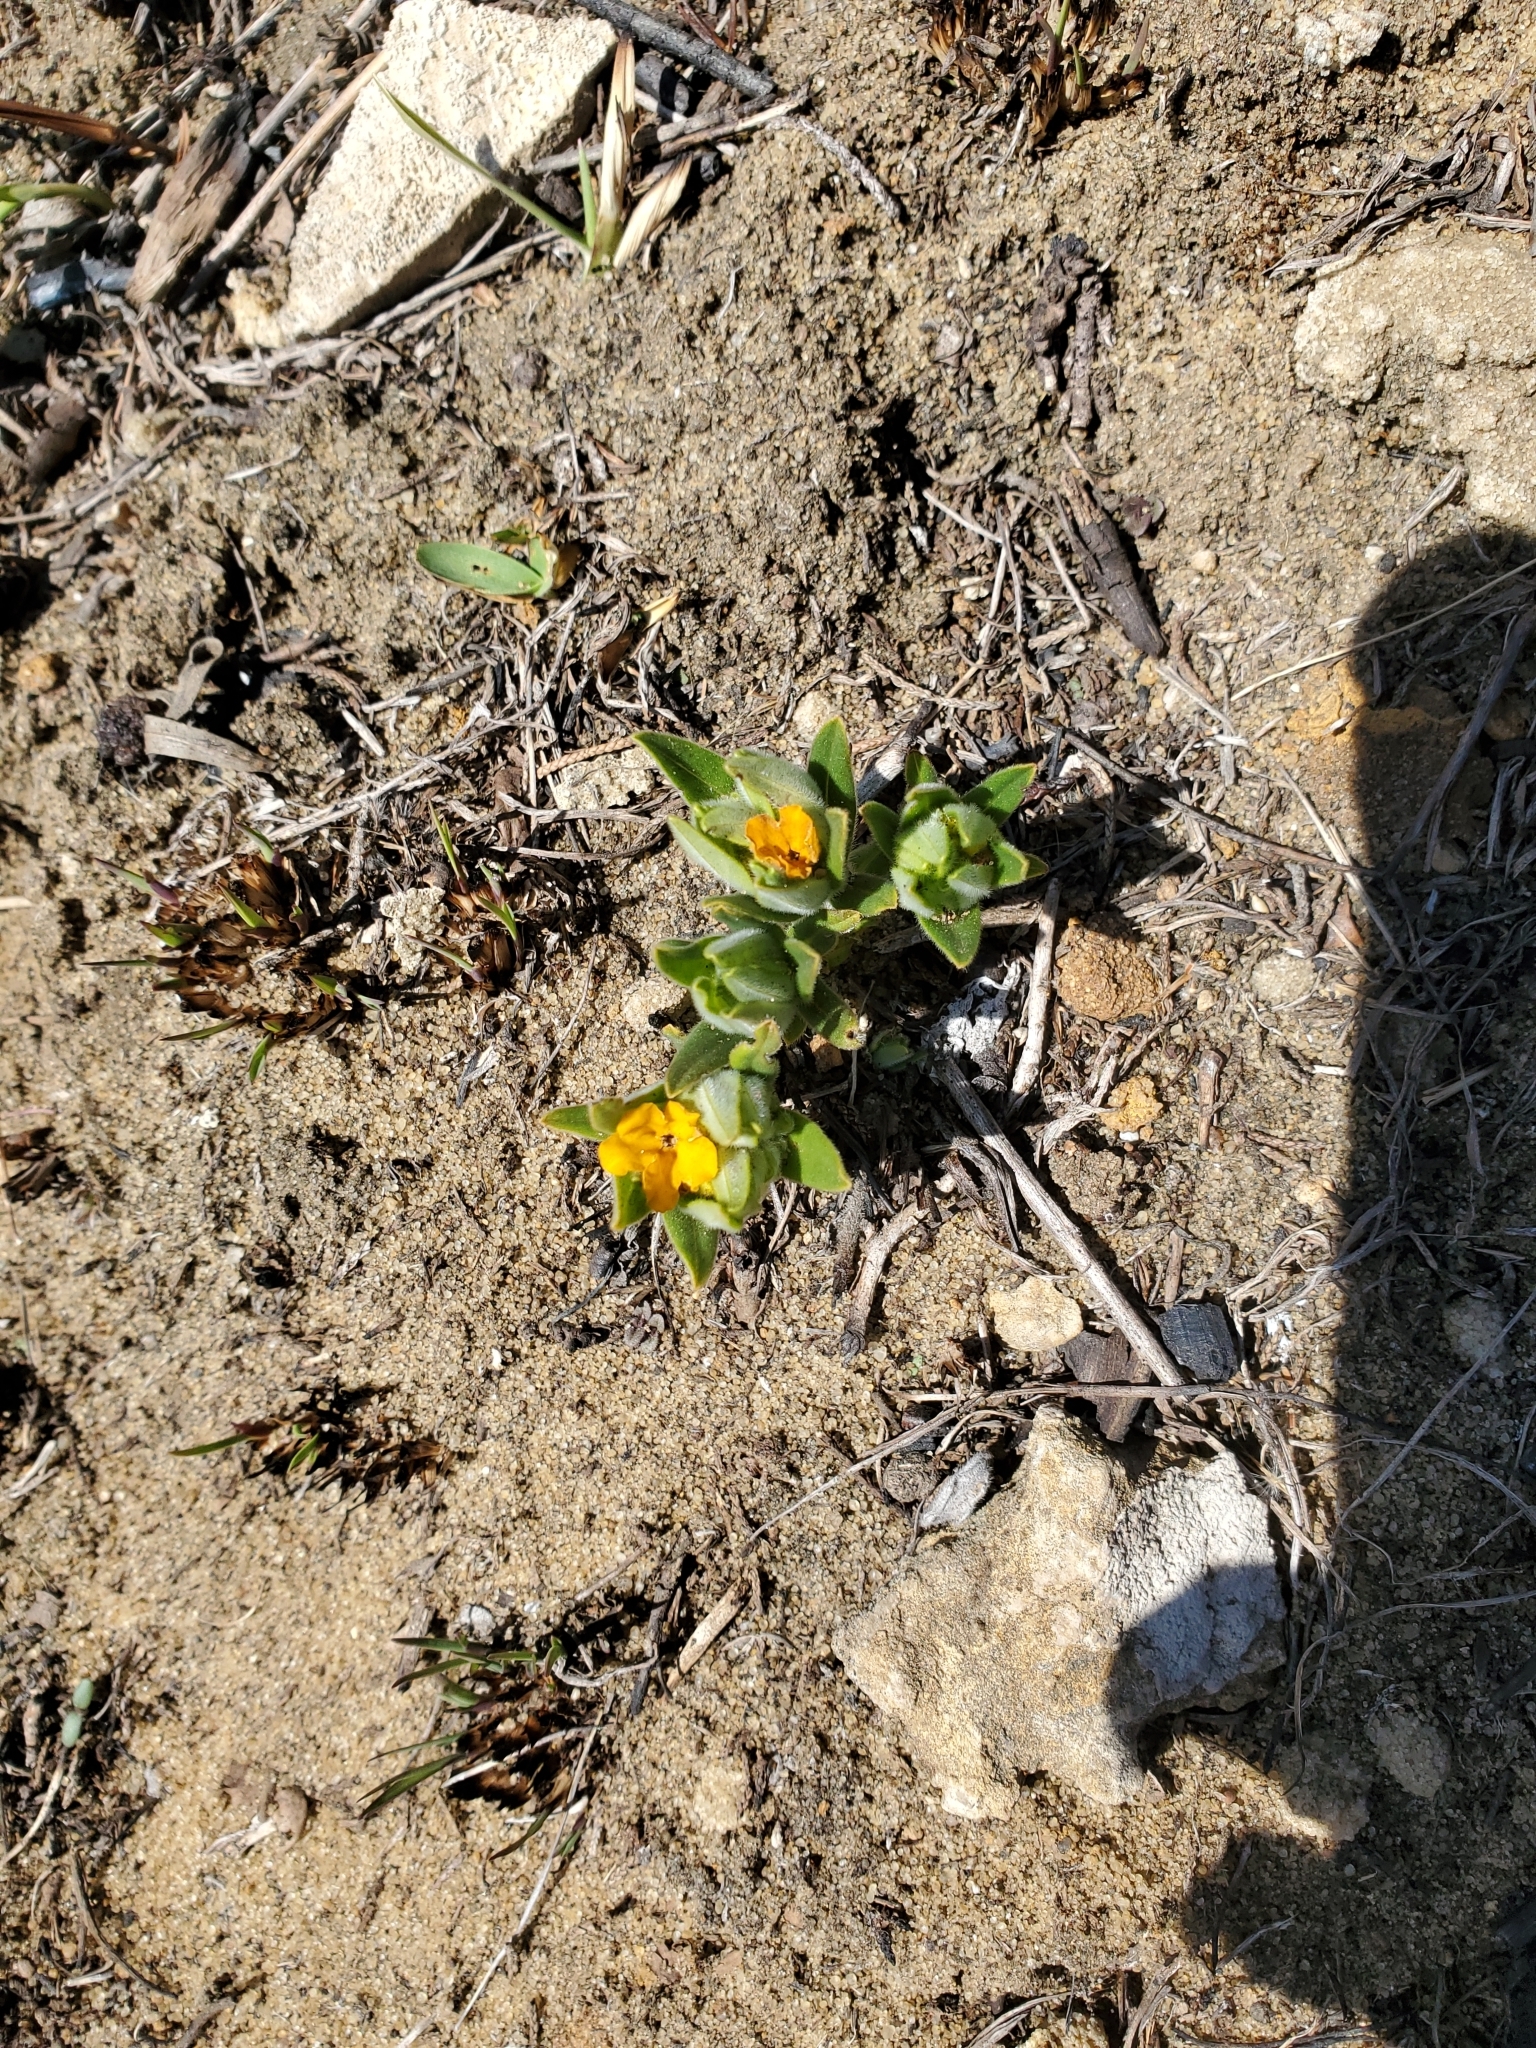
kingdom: Plantae
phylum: Tracheophyta
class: Magnoliopsida
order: Boraginales
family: Boraginaceae
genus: Lithospermum
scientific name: Lithospermum canescens
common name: Hoary puccoon
